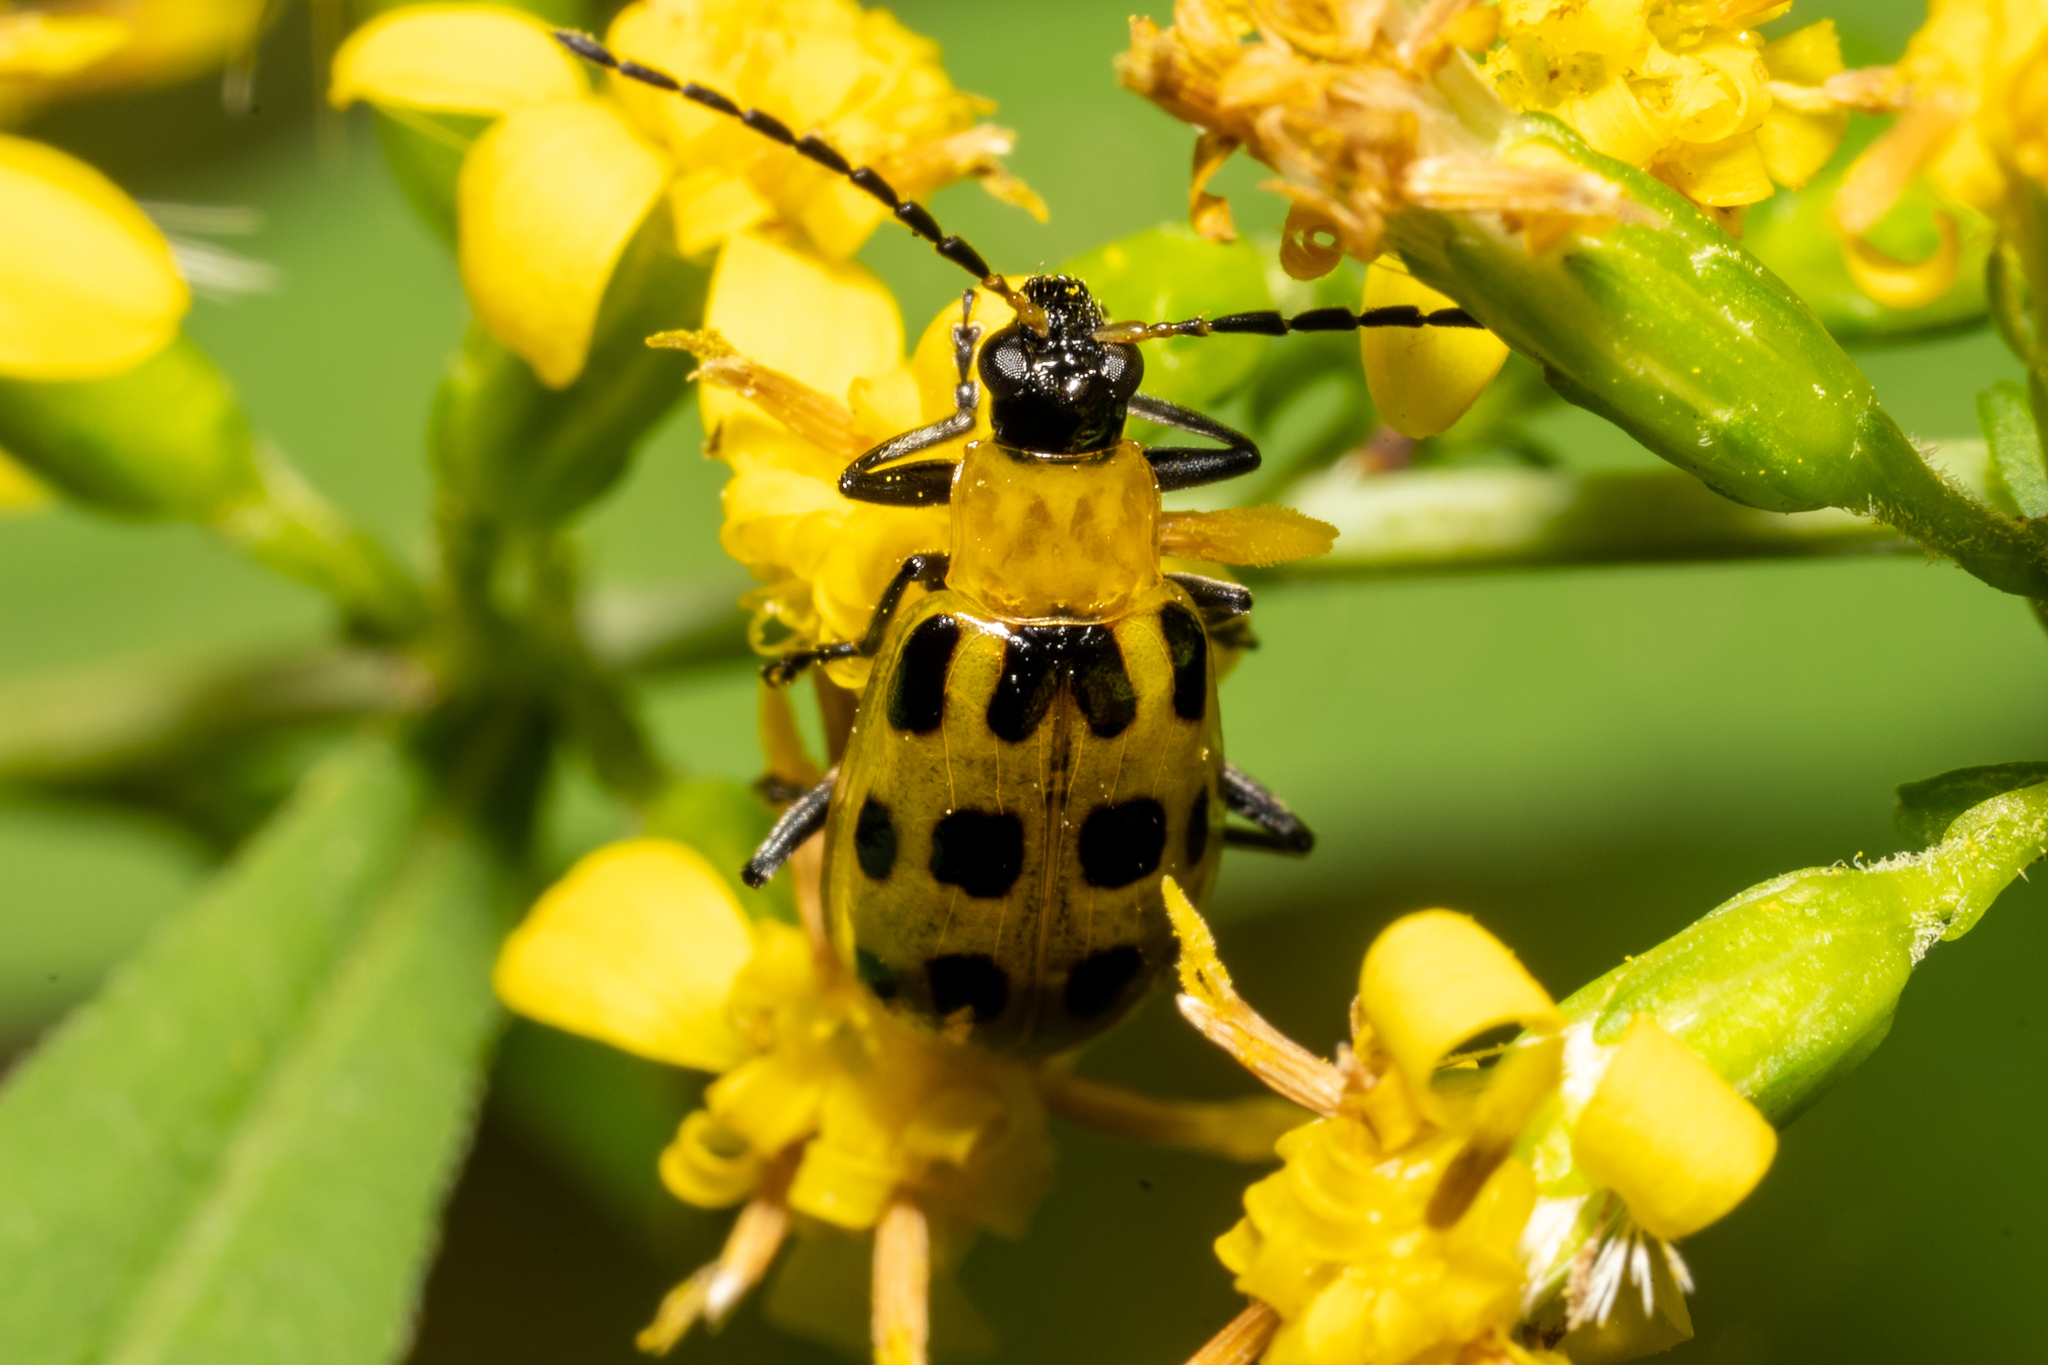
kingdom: Animalia
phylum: Arthropoda
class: Insecta
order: Coleoptera
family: Chrysomelidae
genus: Diabrotica
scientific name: Diabrotica undecimpunctata
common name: Spotted cucumber beetle
